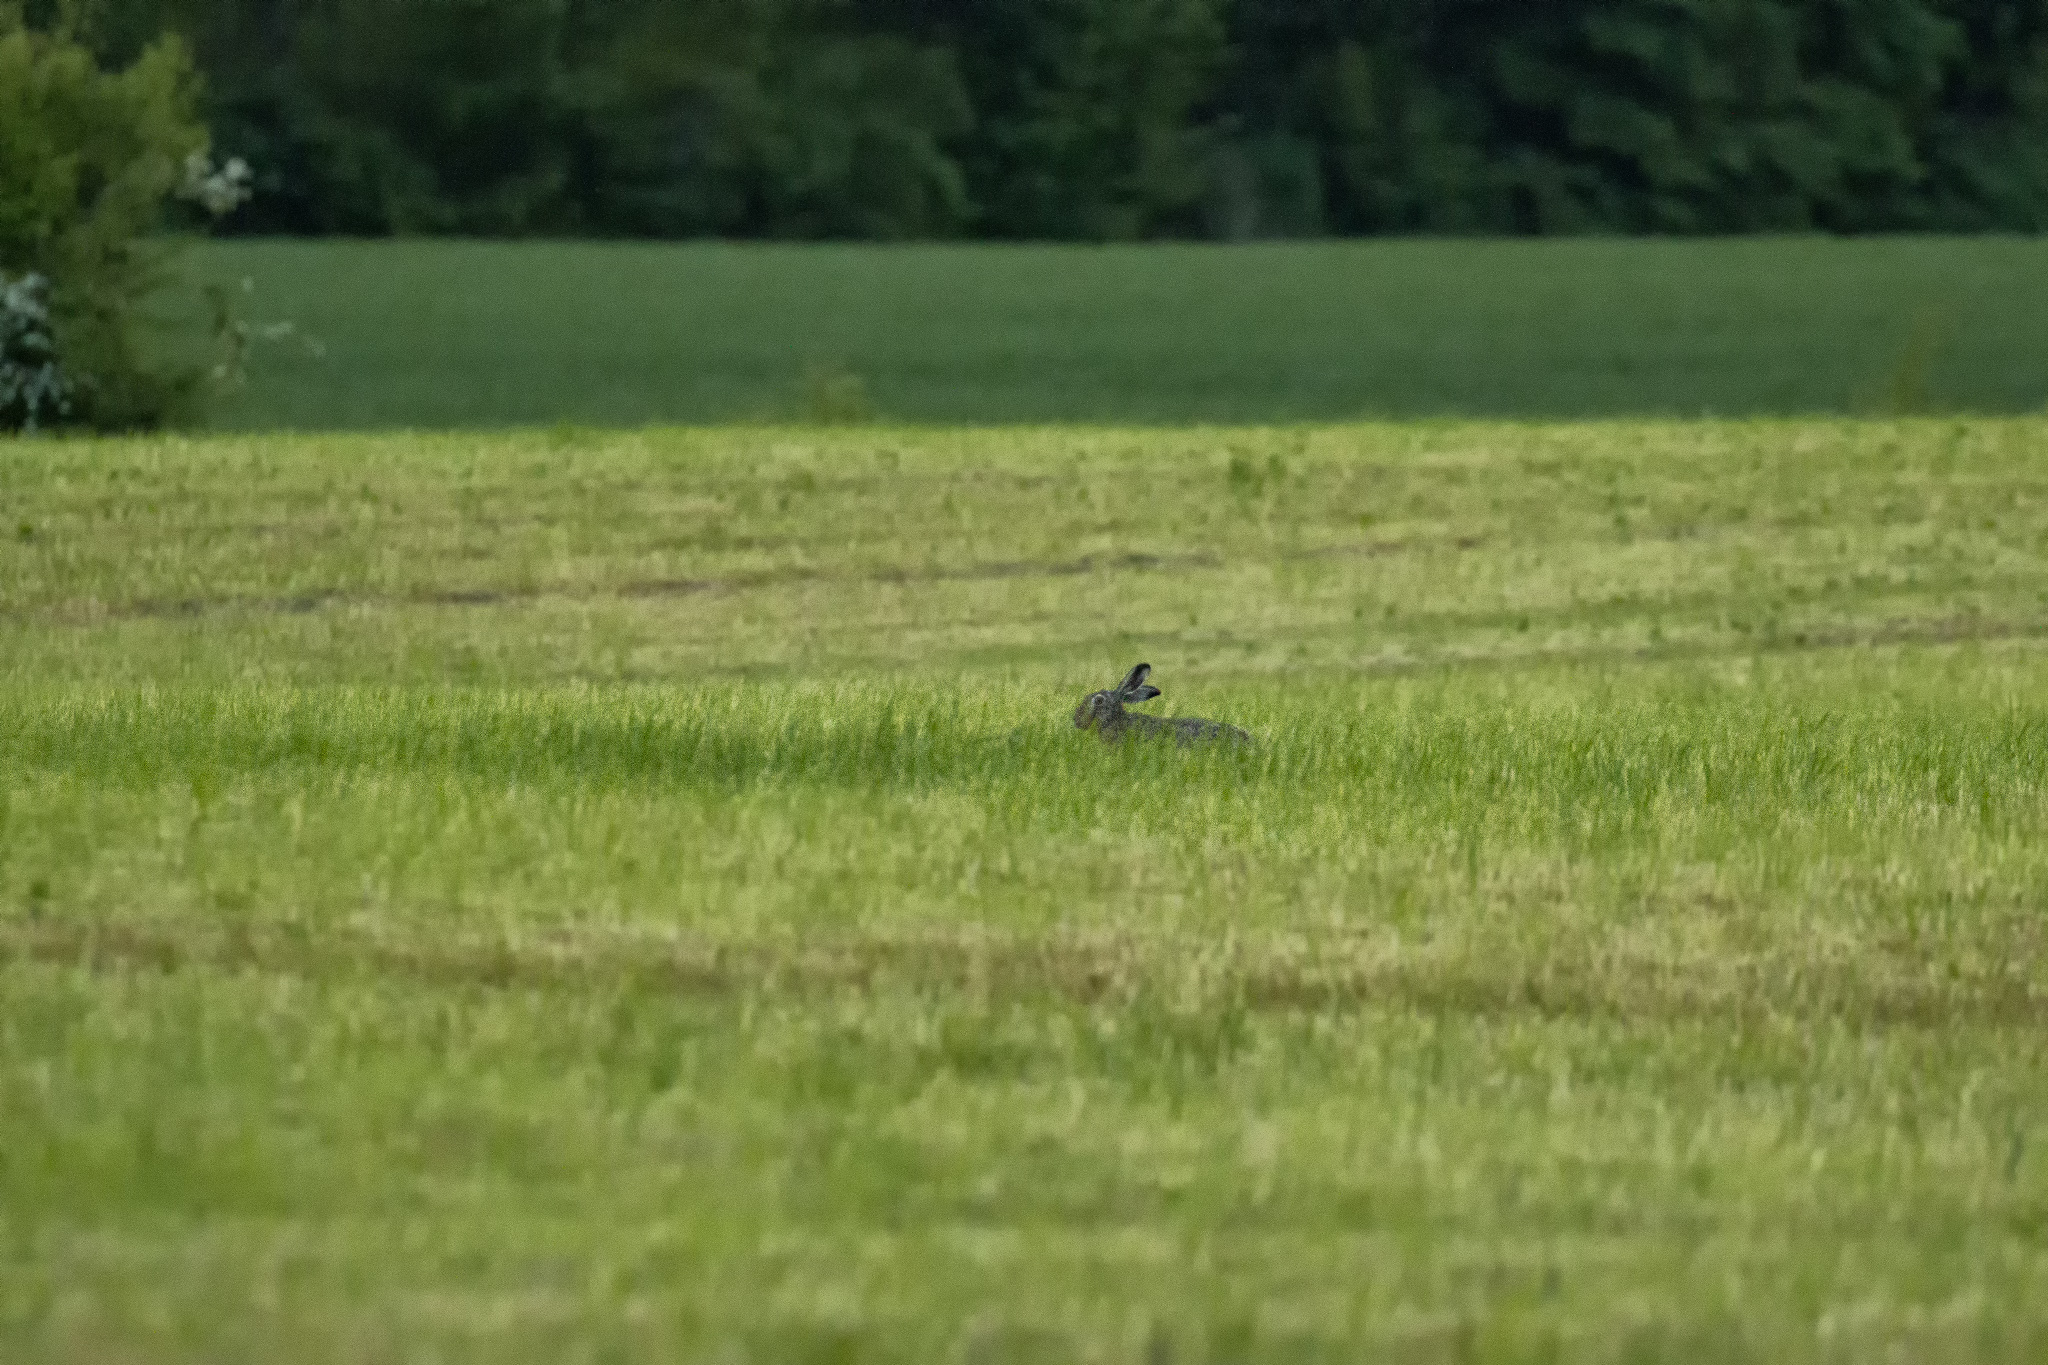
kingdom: Animalia
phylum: Chordata
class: Mammalia
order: Lagomorpha
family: Leporidae
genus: Lepus
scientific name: Lepus europaeus
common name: European hare
